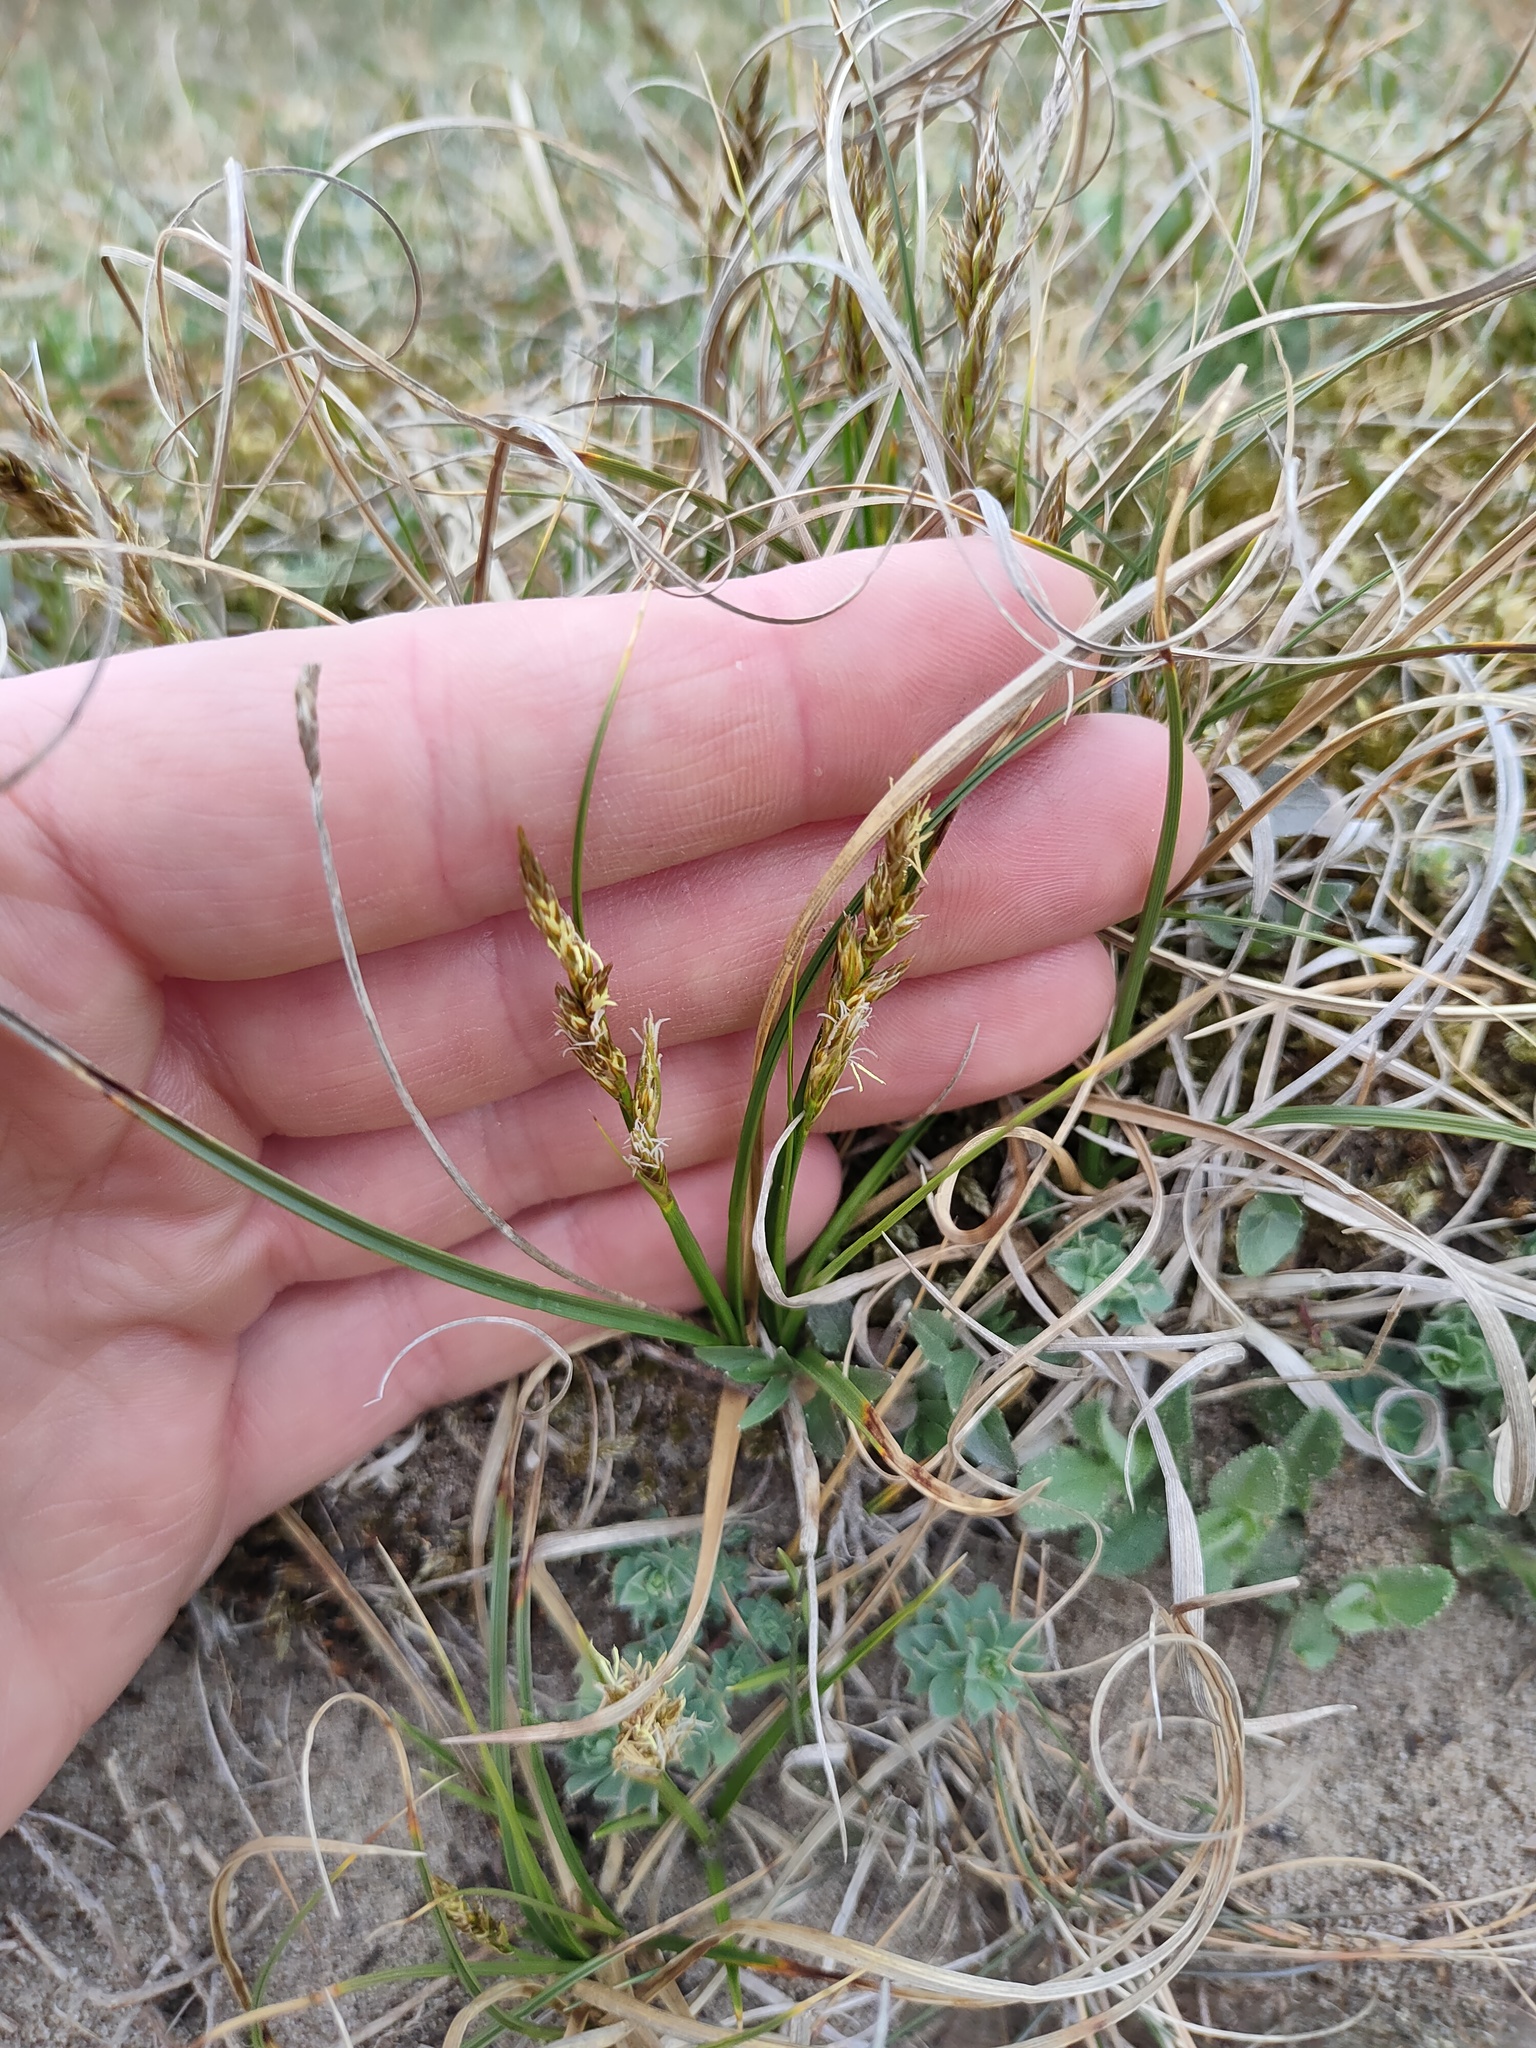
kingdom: Plantae
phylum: Tracheophyta
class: Liliopsida
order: Poales
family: Cyperaceae
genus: Carex
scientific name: Carex arenaria
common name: Sand sedge
